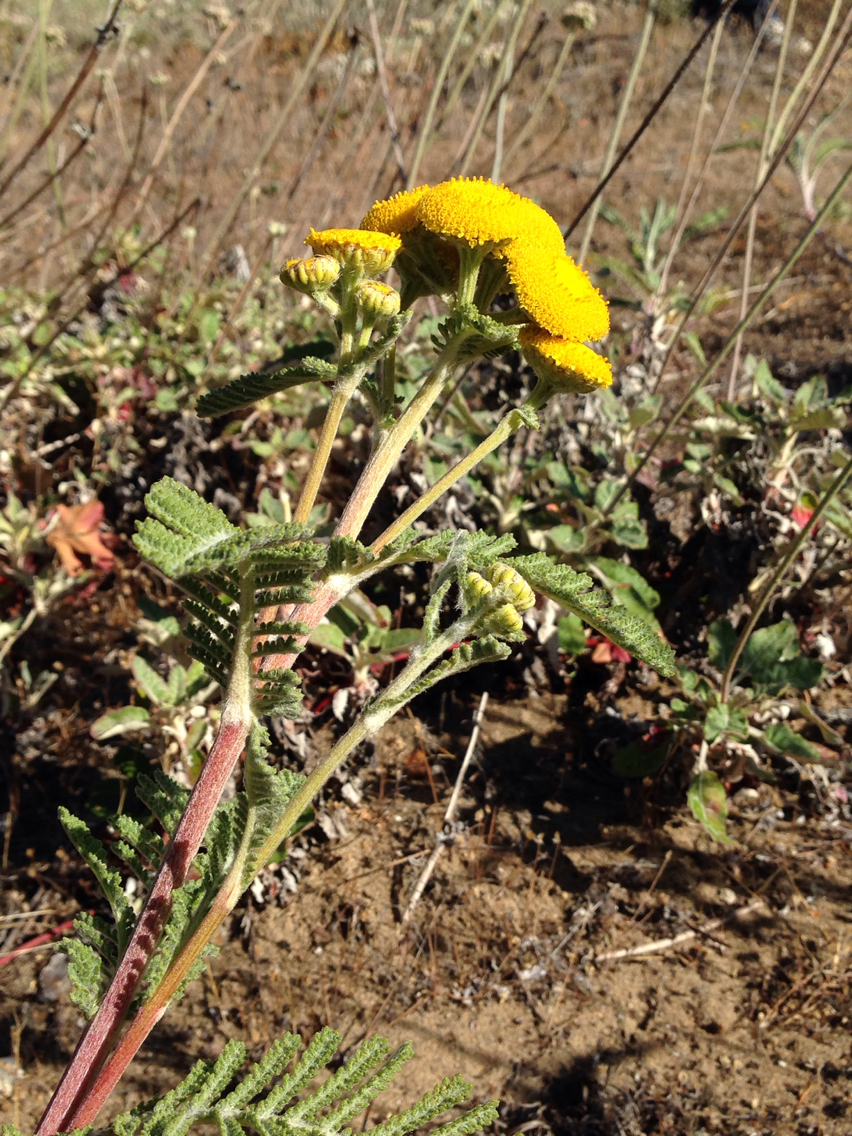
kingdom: Plantae
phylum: Tracheophyta
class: Magnoliopsida
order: Asterales
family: Asteraceae
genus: Tanacetum
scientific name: Tanacetum bipinnatum
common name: Dwarf tansy
